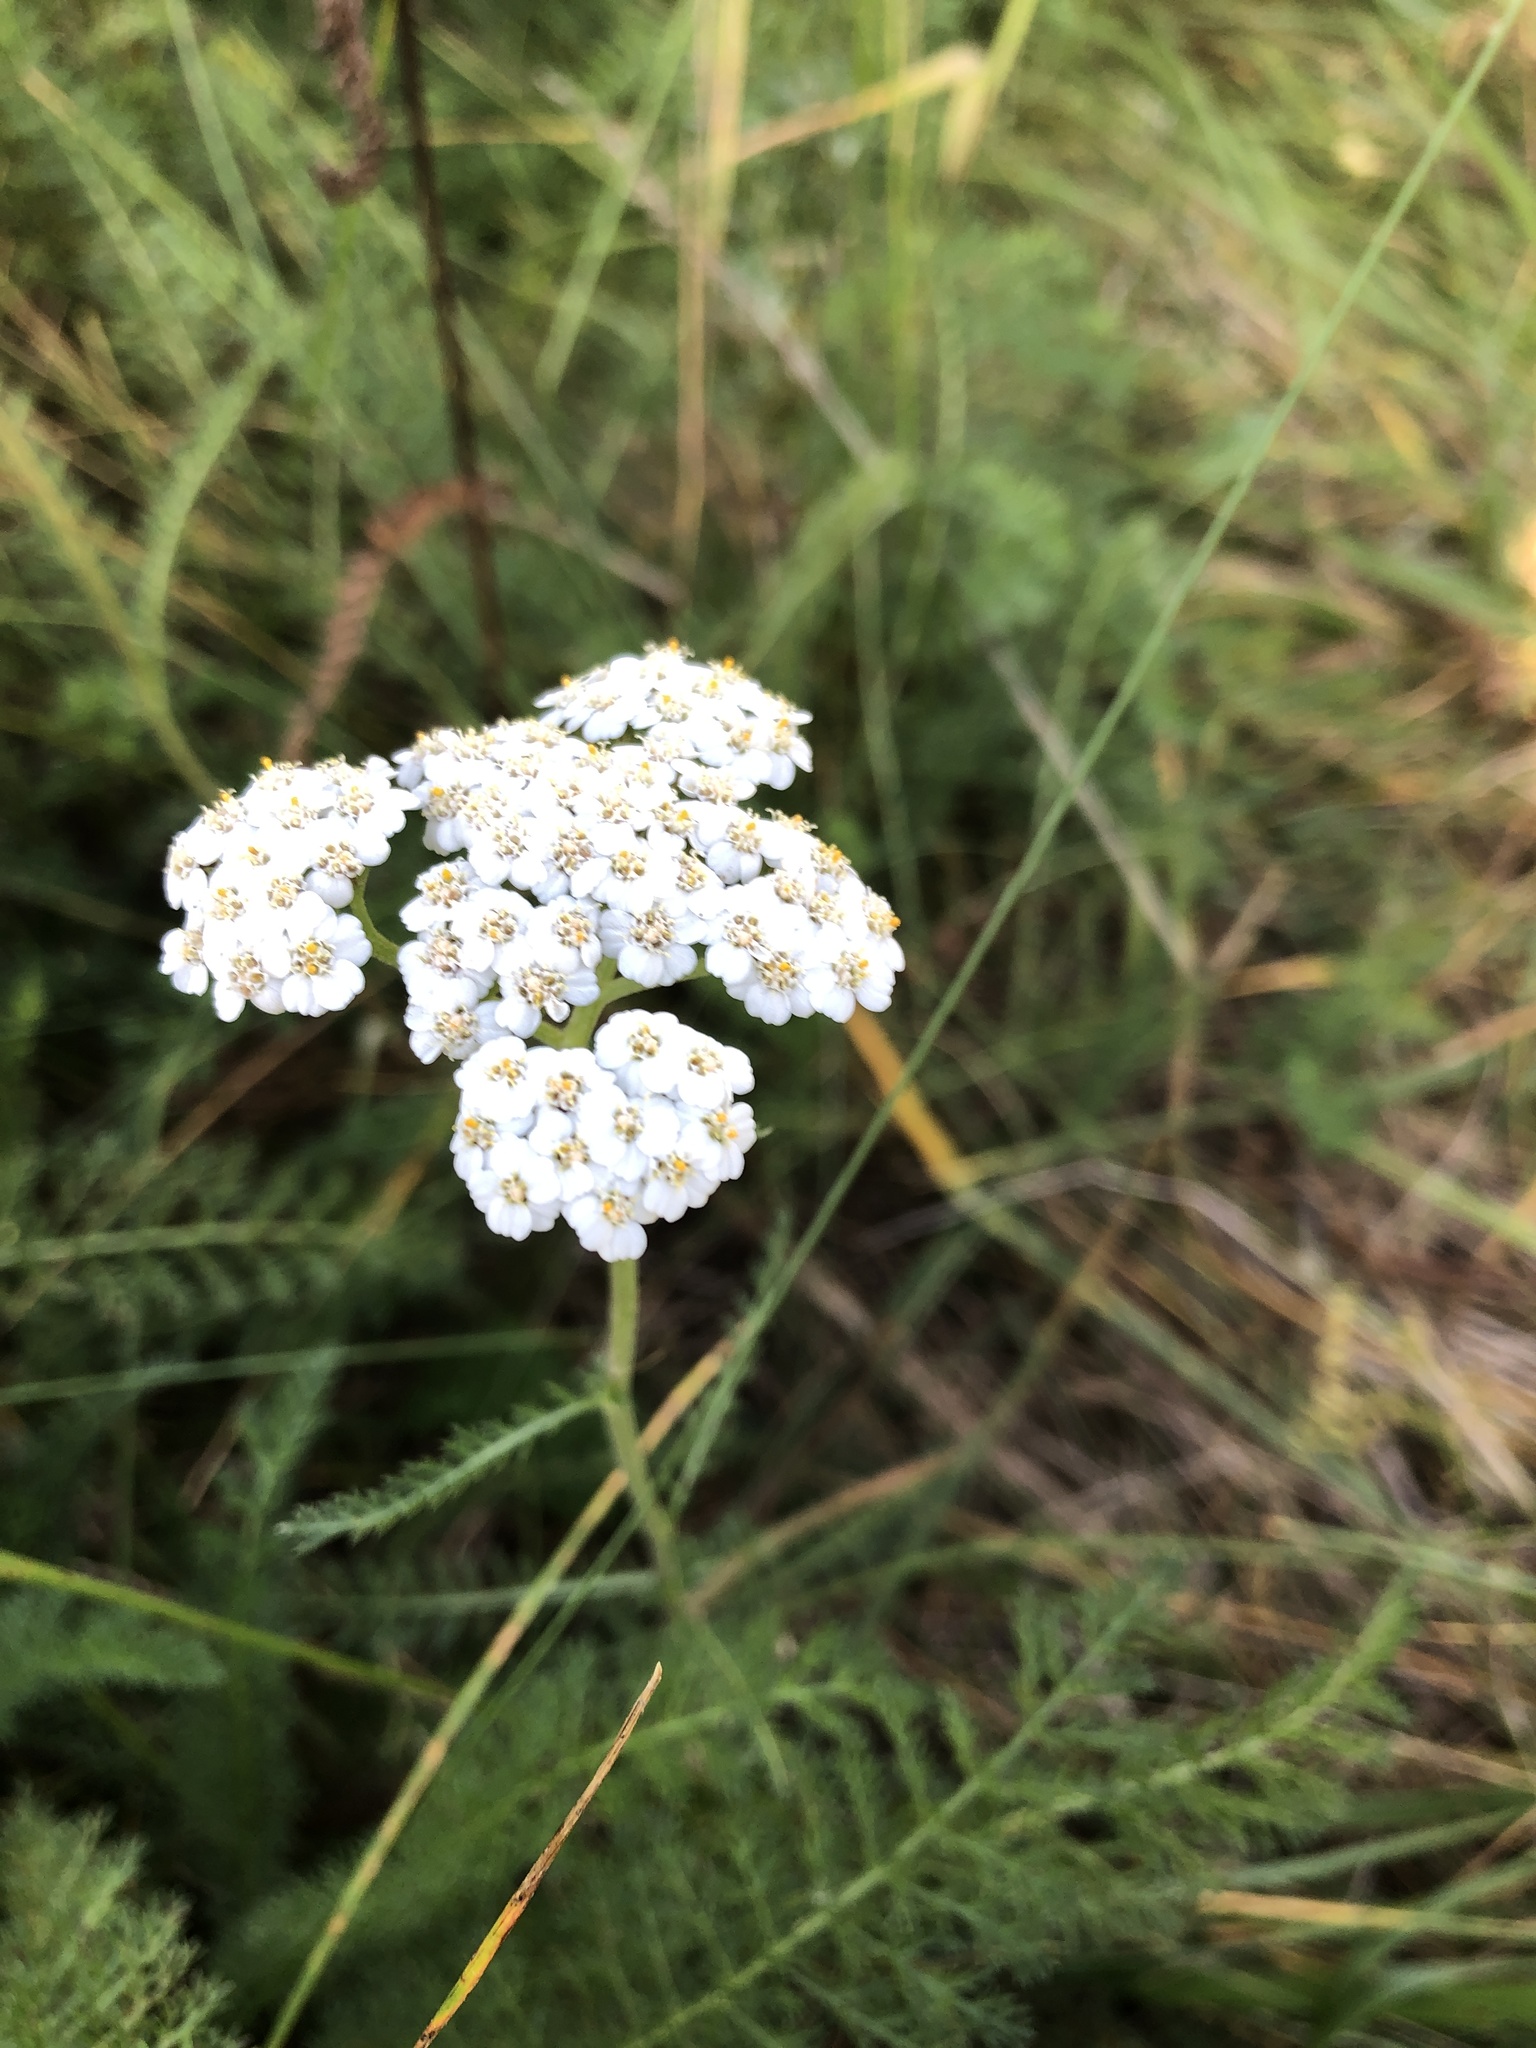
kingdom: Plantae
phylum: Tracheophyta
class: Magnoliopsida
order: Asterales
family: Asteraceae
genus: Achillea
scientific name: Achillea millefolium
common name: Yarrow
